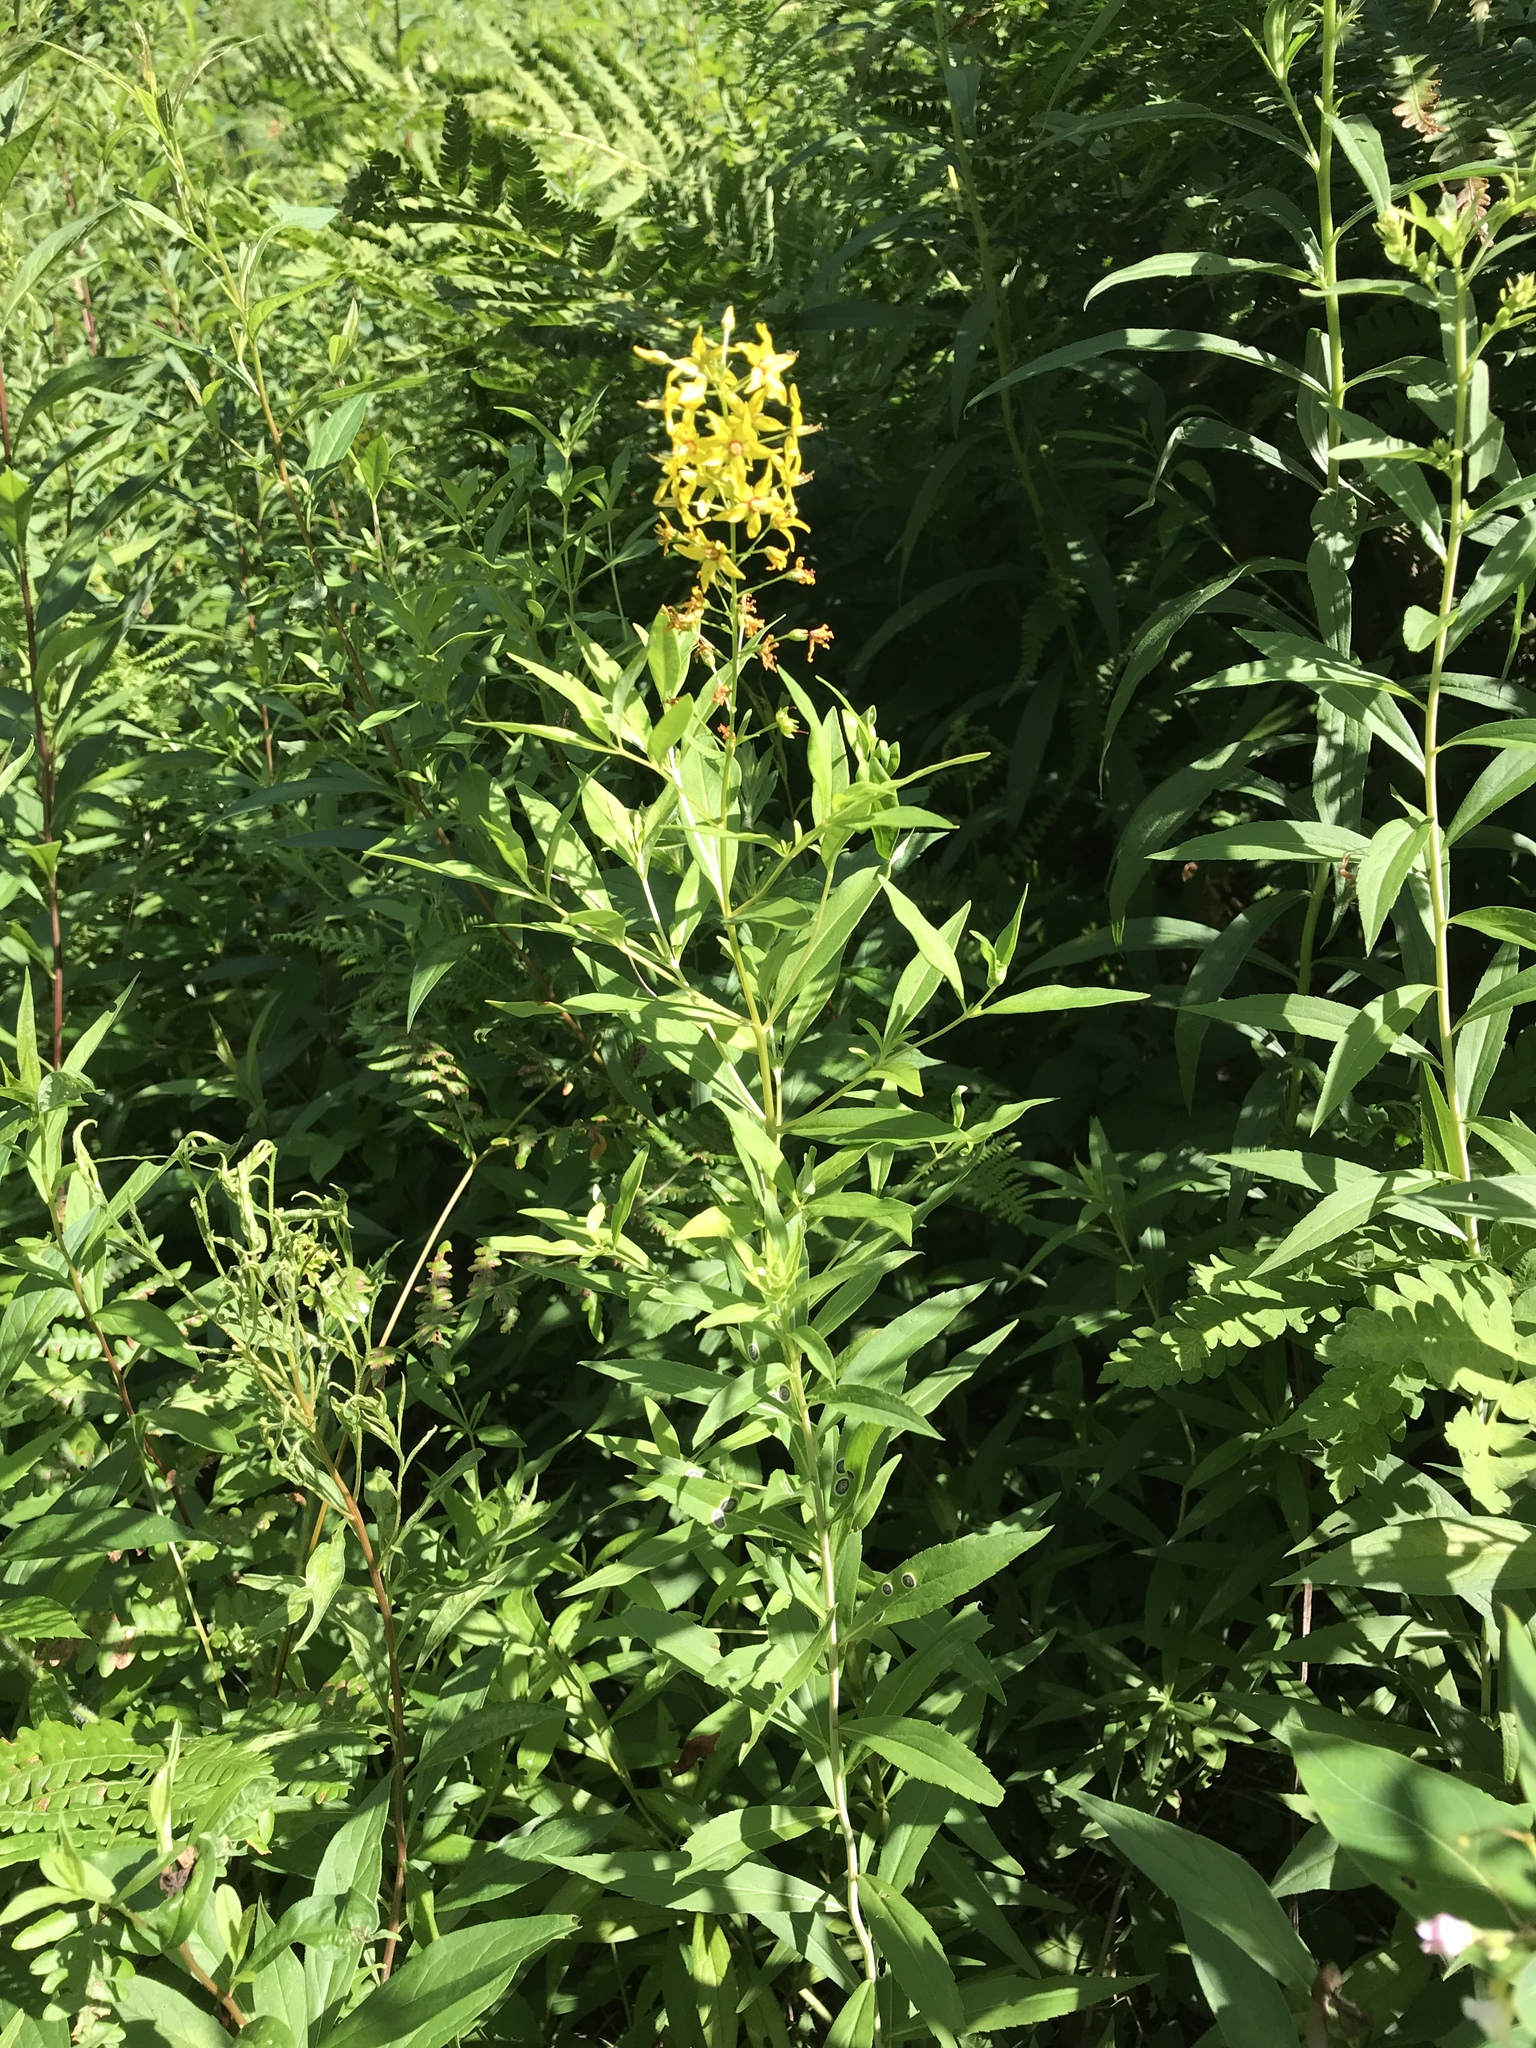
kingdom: Plantae
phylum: Tracheophyta
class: Magnoliopsida
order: Ericales
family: Primulaceae
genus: Lysimachia
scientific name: Lysimachia terrestris
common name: Lake loosestrife
